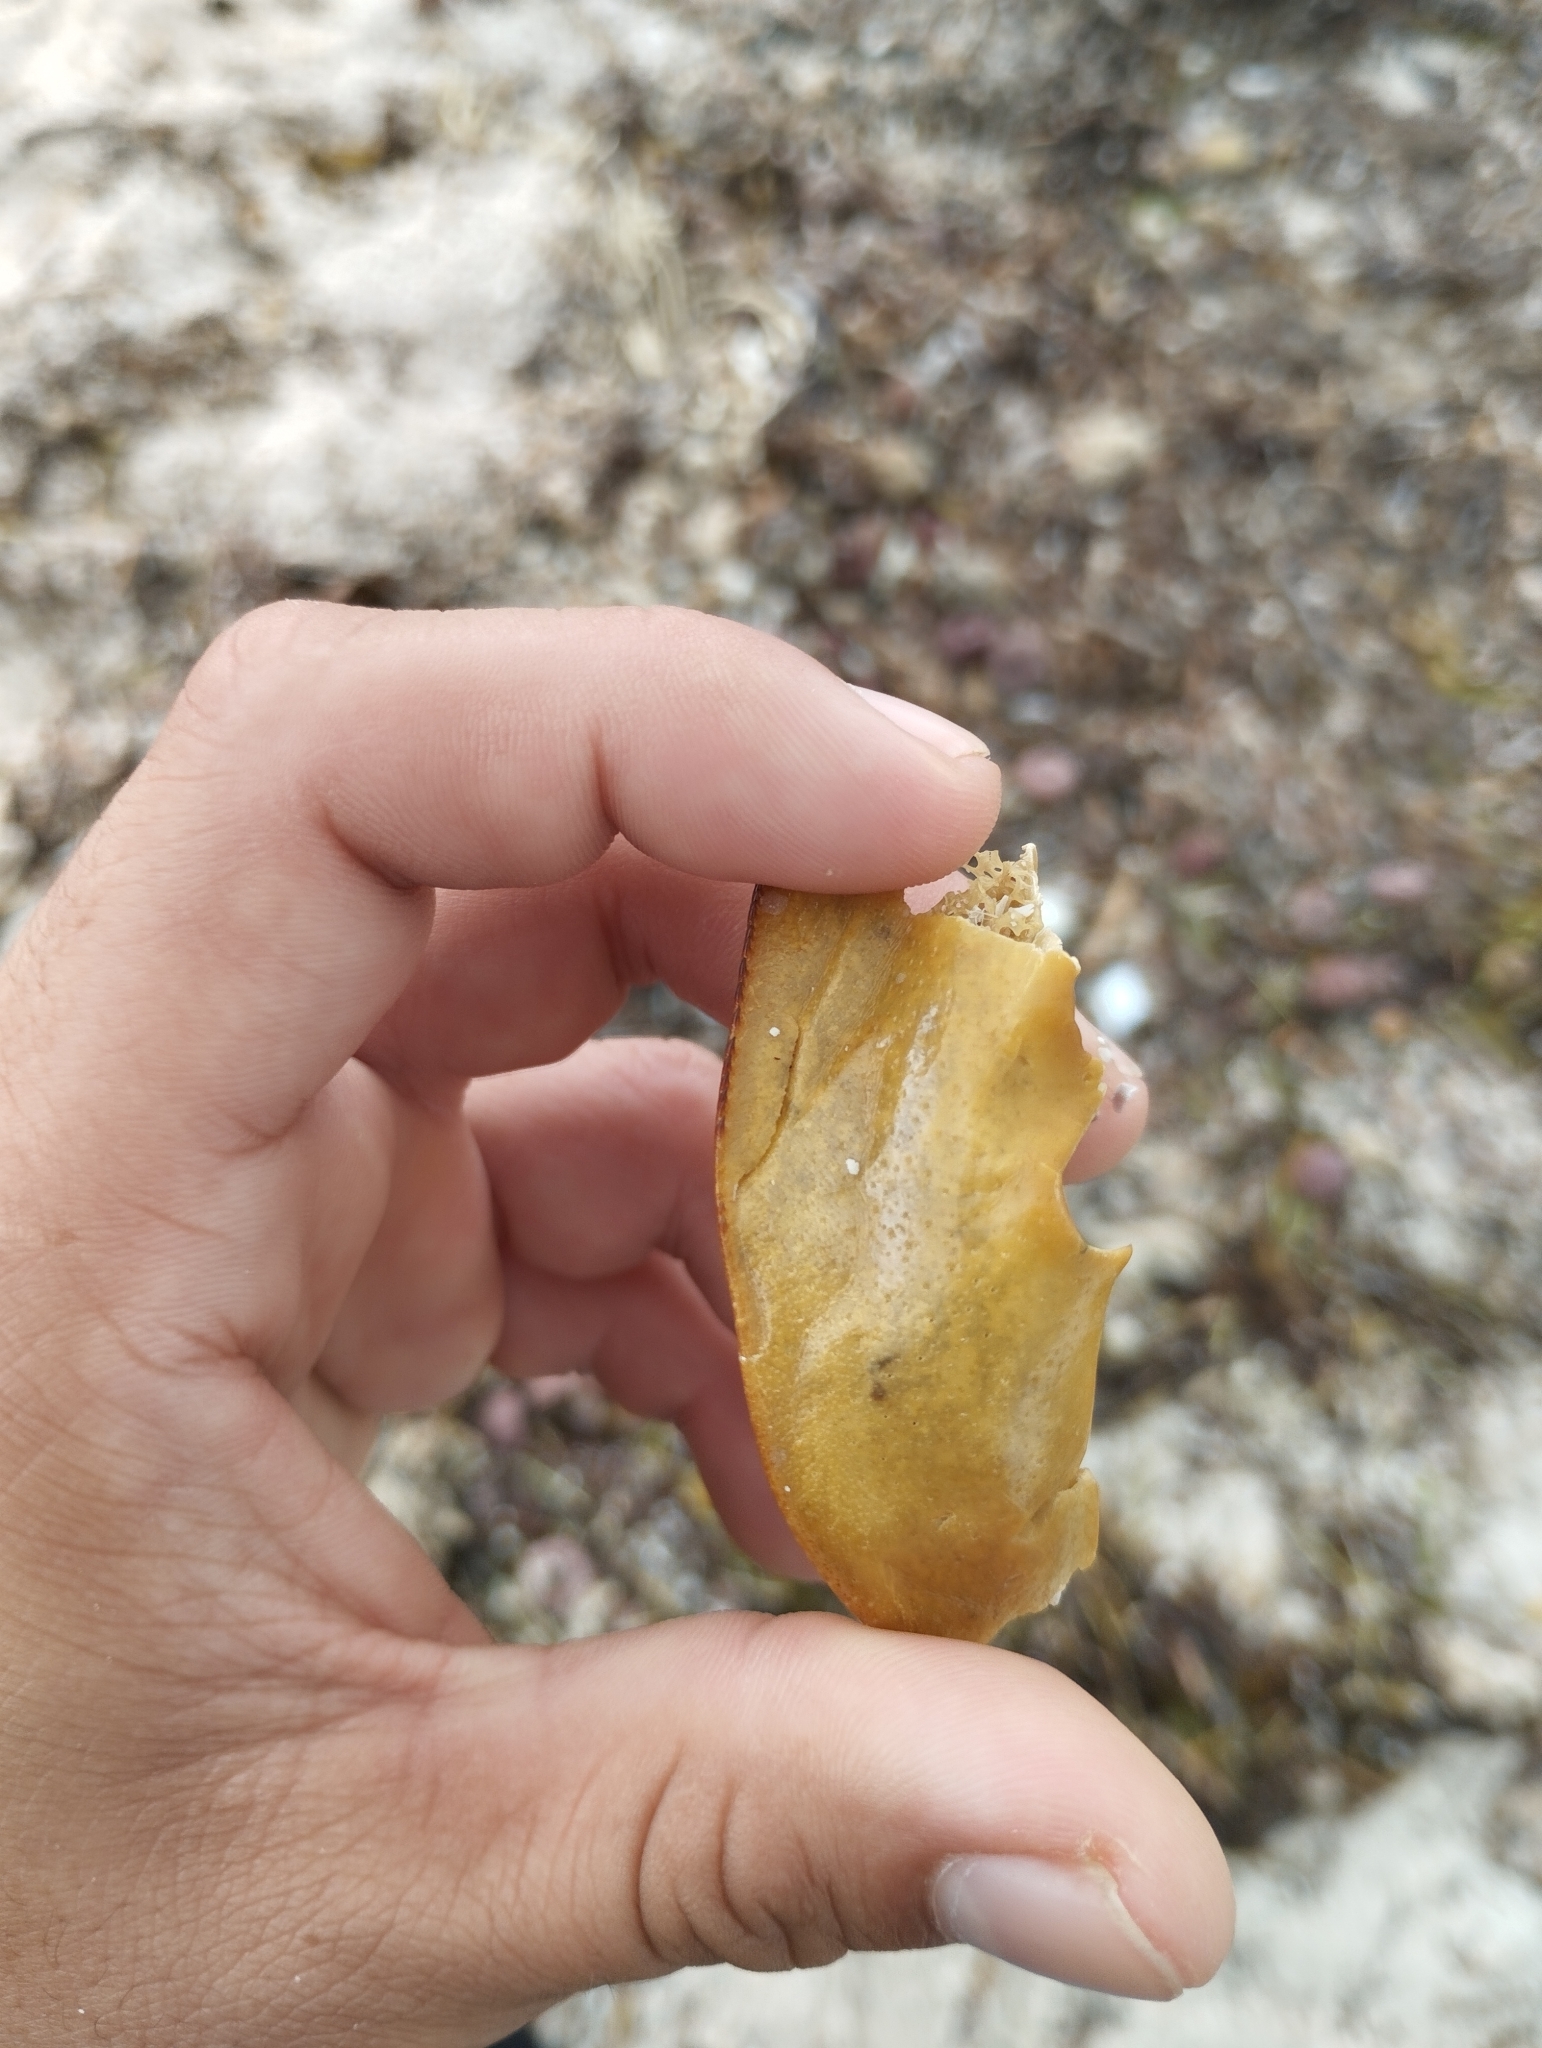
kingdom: Animalia
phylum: Arthropoda
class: Merostomata
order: Xiphosurida
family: Limulidae
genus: Limulus
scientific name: Limulus polyphemus
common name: Horseshoe crab
